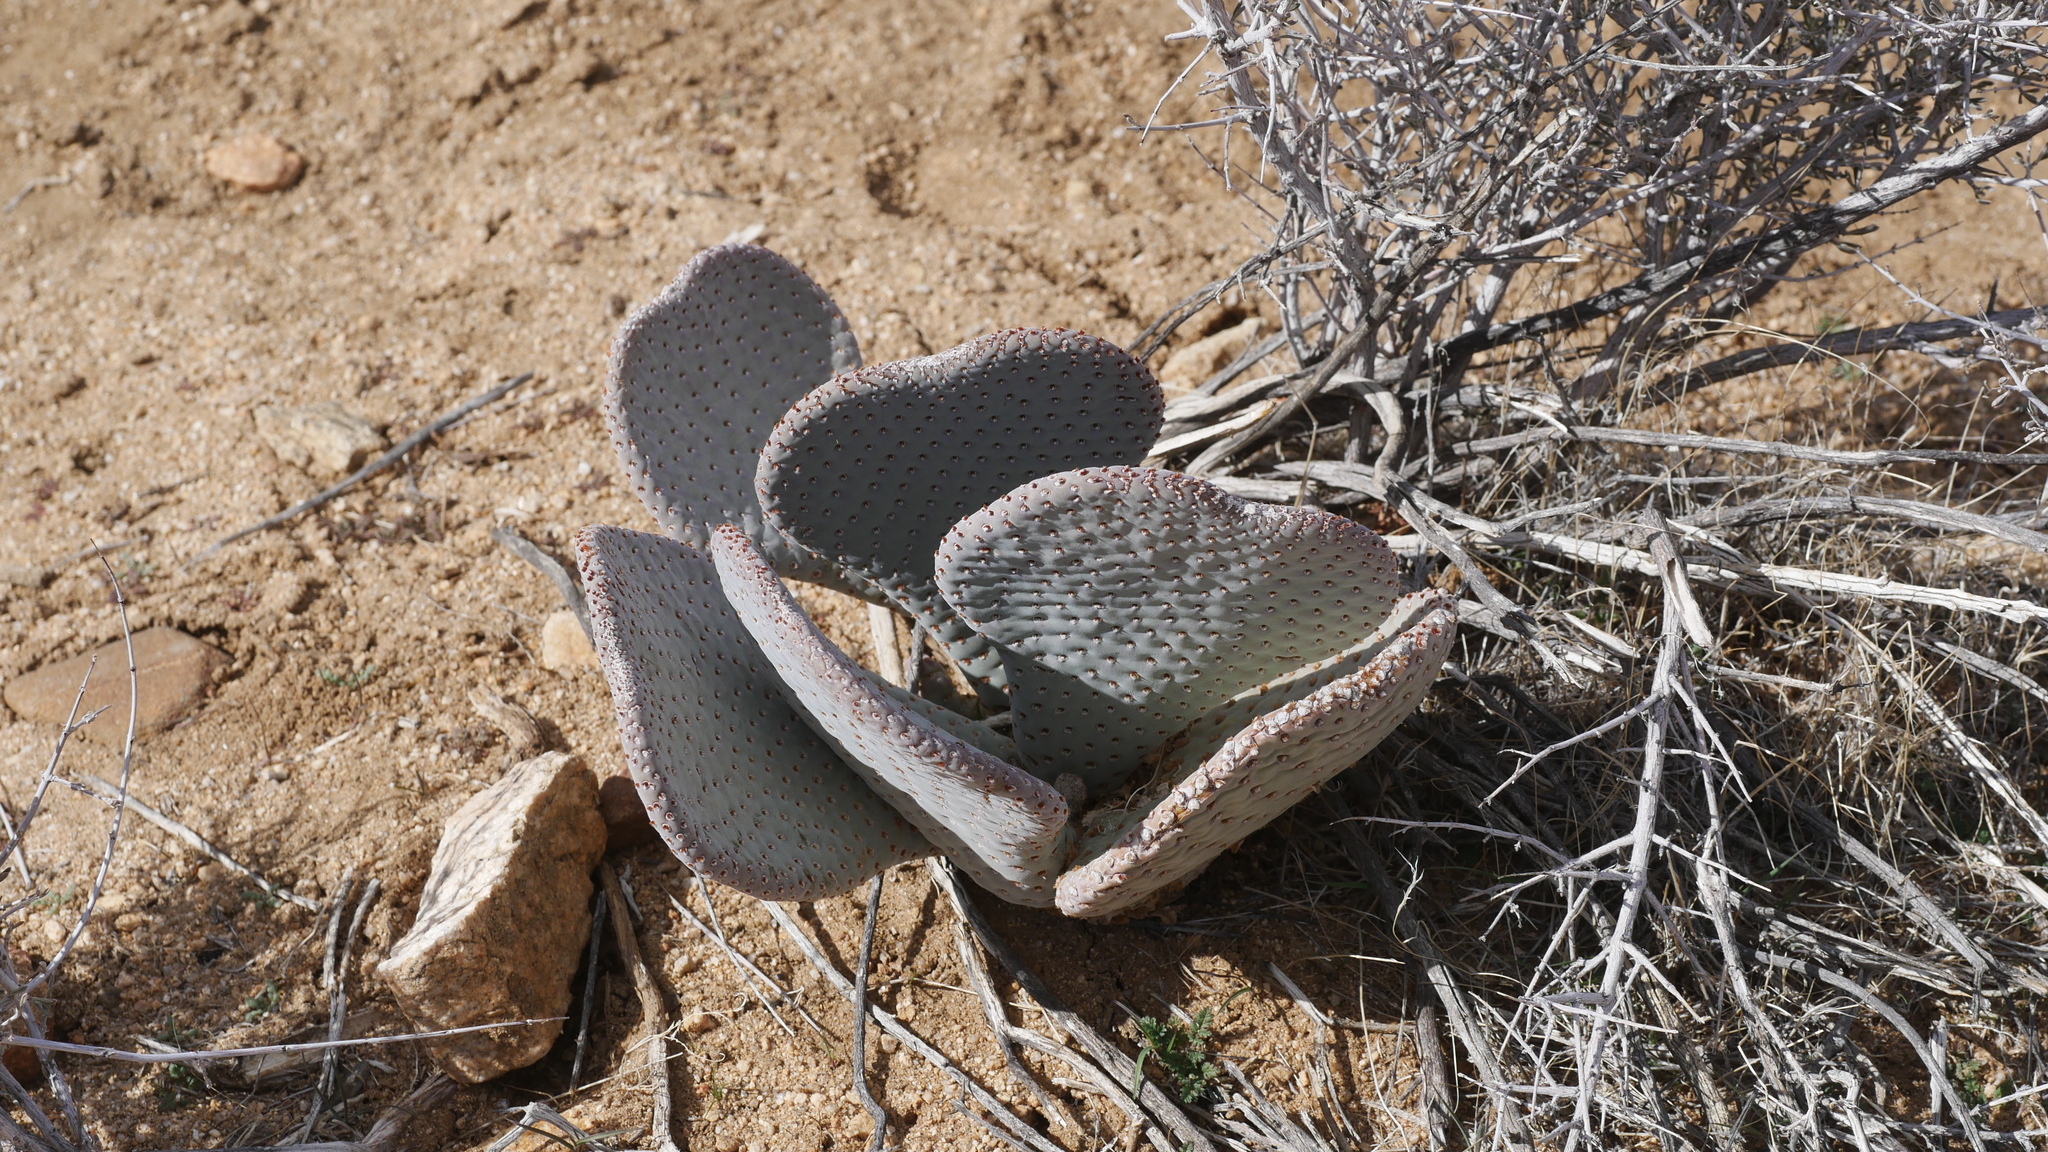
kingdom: Plantae
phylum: Tracheophyta
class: Magnoliopsida
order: Caryophyllales
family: Cactaceae
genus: Opuntia
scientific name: Opuntia basilaris
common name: Beavertail prickly-pear
